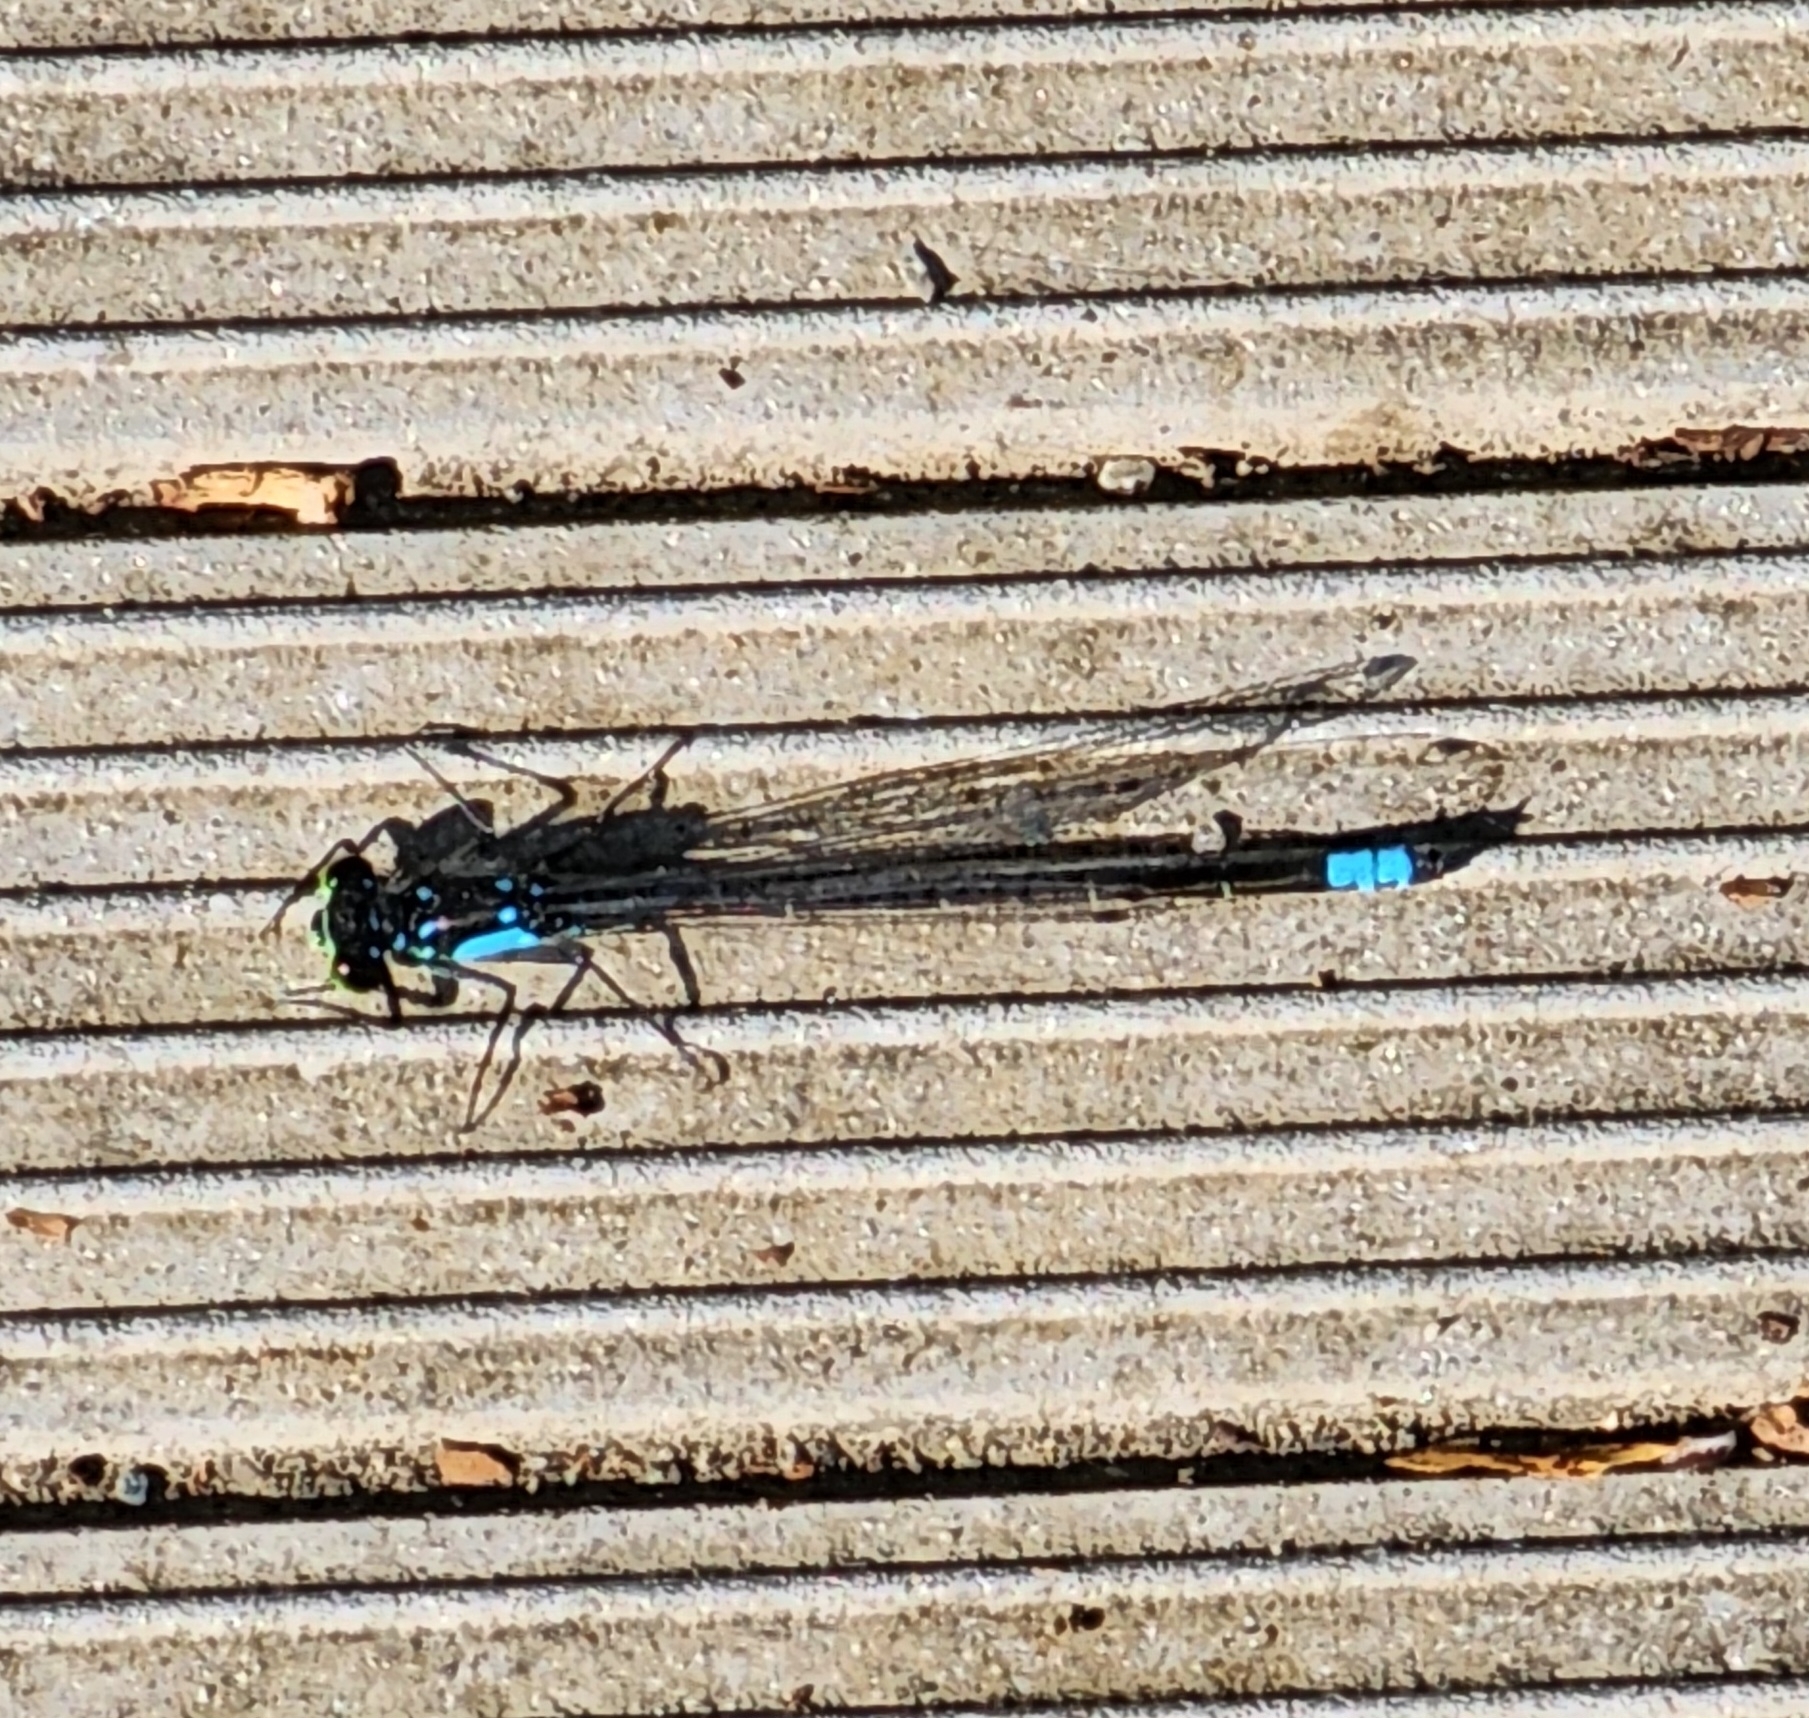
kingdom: Animalia
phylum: Arthropoda
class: Insecta
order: Odonata
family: Coenagrionidae
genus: Ischnura
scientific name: Ischnura cervula
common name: Pacific forktail
